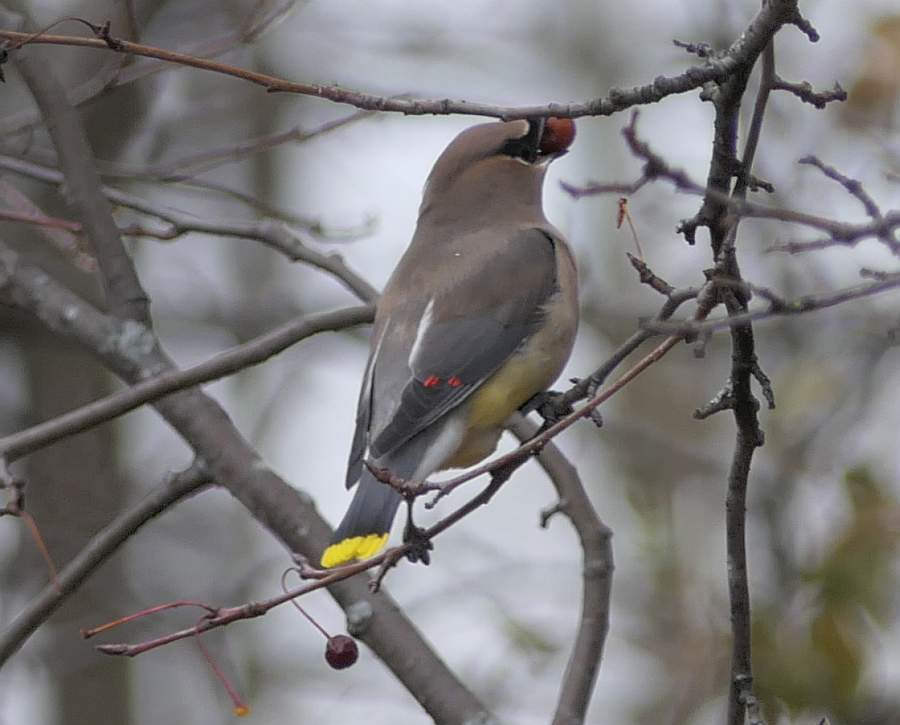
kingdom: Animalia
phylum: Chordata
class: Aves
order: Passeriformes
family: Bombycillidae
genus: Bombycilla
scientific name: Bombycilla cedrorum
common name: Cedar waxwing
